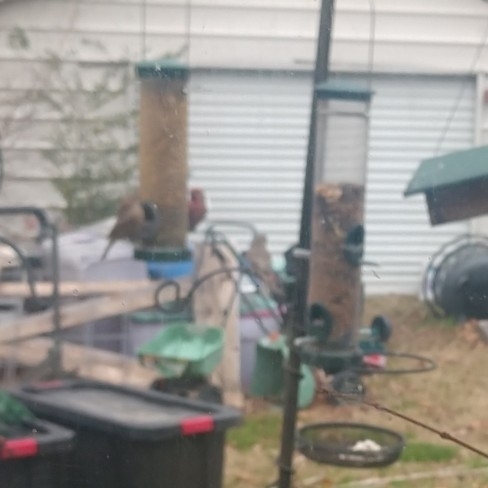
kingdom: Animalia
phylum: Chordata
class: Aves
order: Passeriformes
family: Fringillidae
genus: Haemorhous
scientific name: Haemorhous mexicanus
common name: House finch
